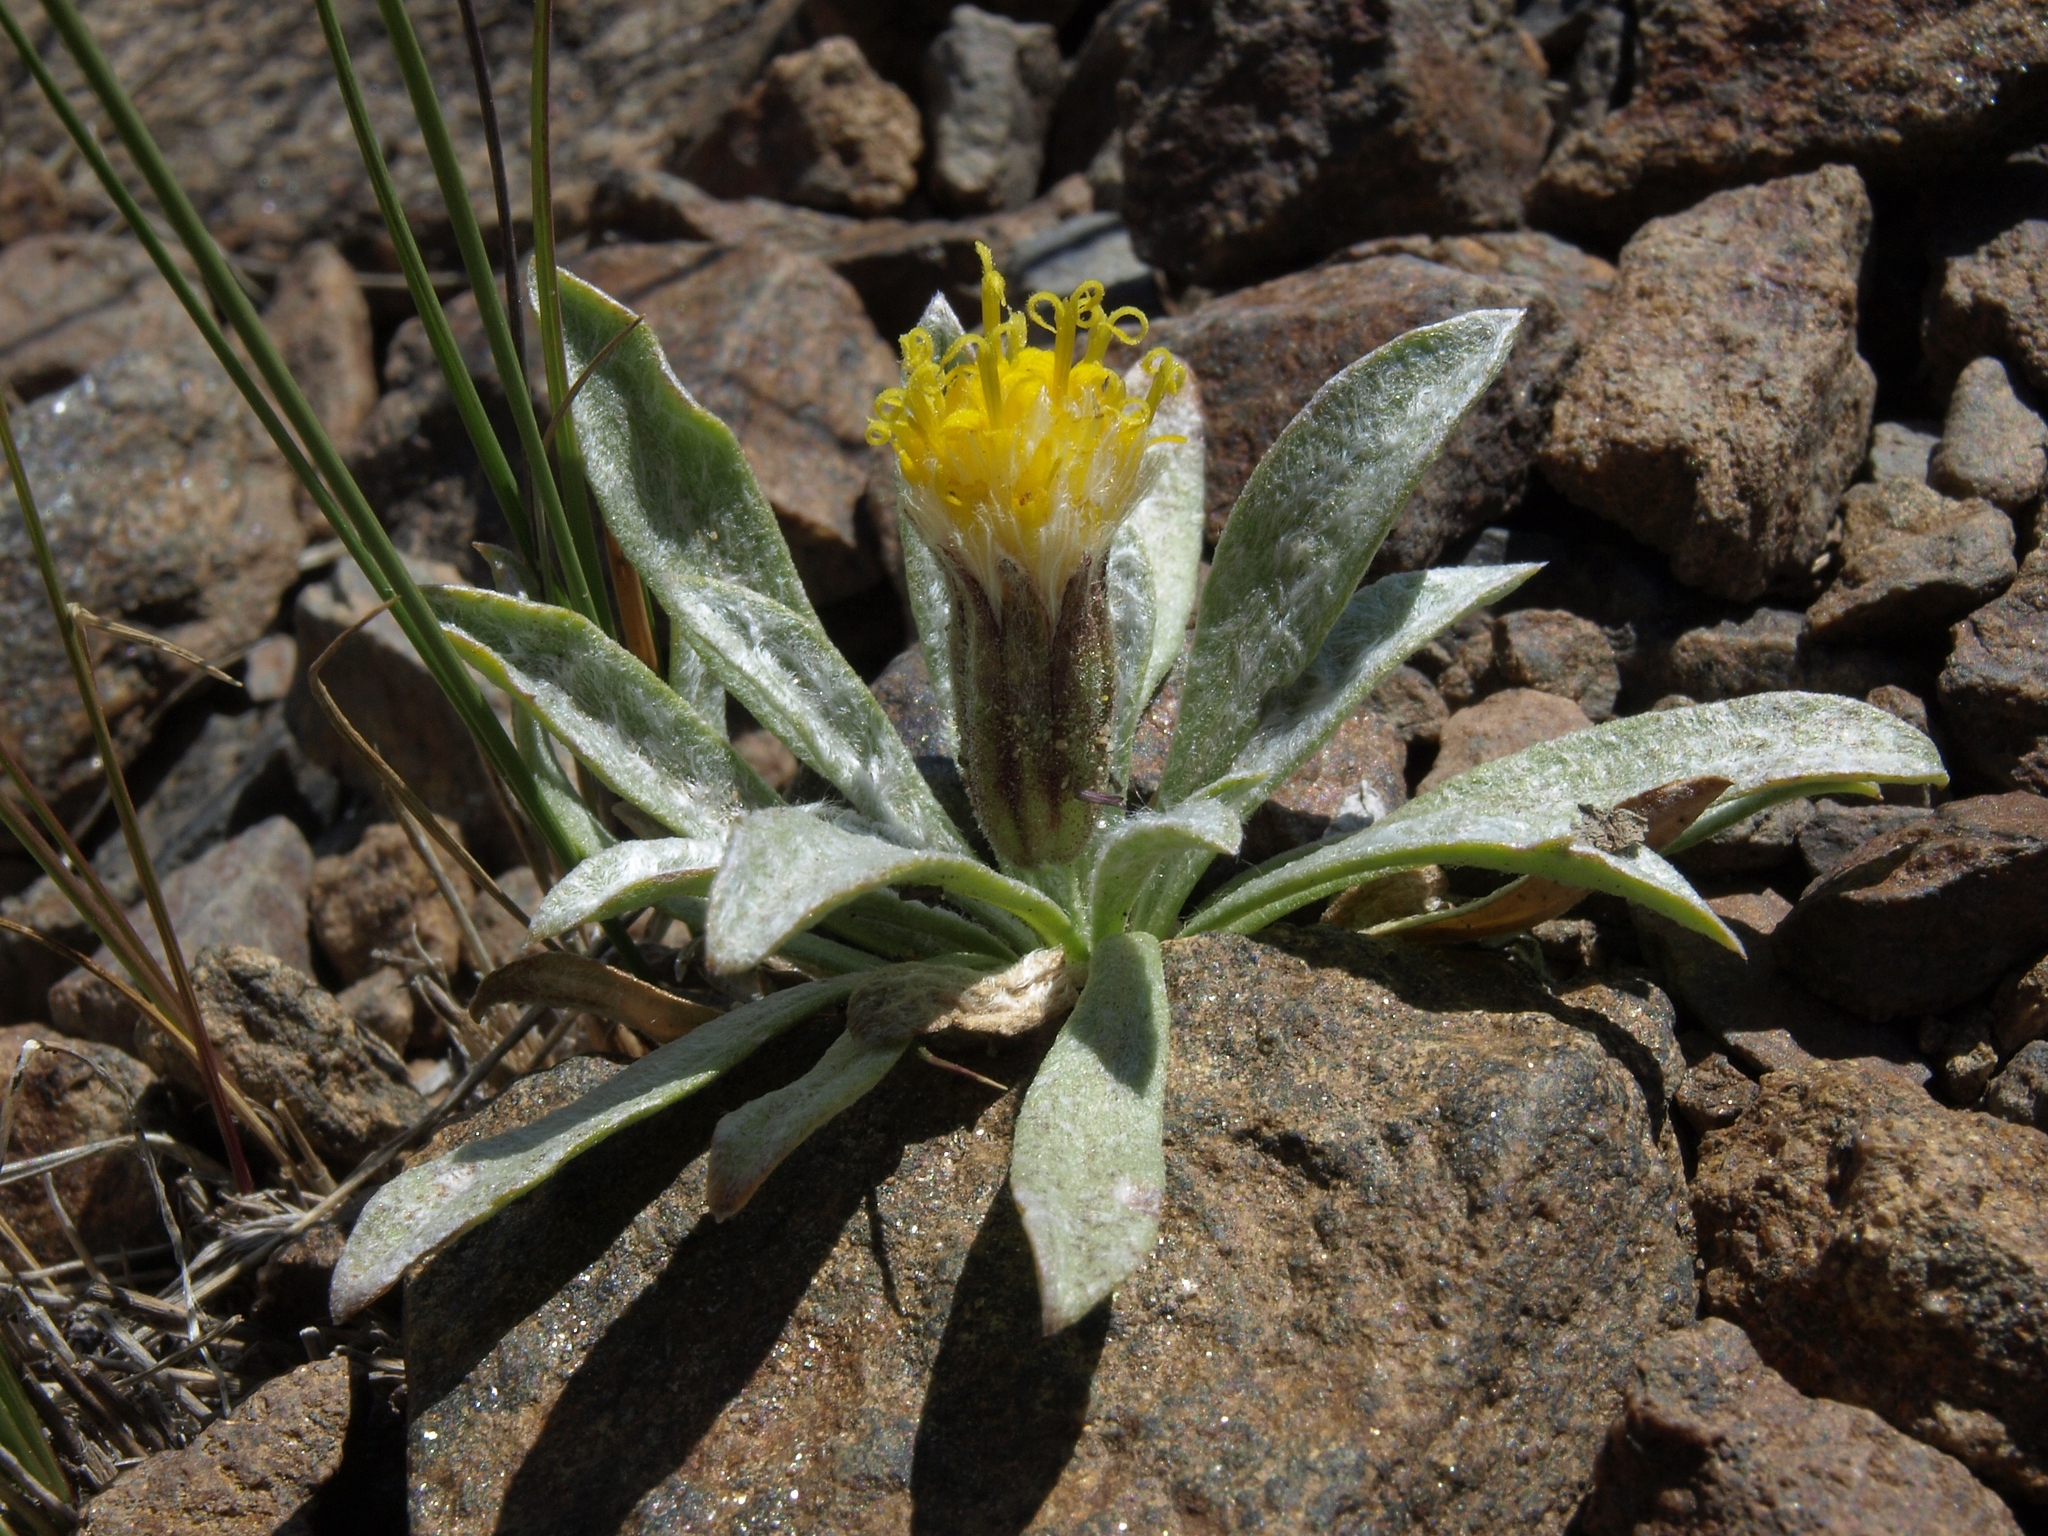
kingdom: Plantae
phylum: Tracheophyta
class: Magnoliopsida
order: Asterales
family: Asteraceae
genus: Raillardella
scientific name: Raillardella argentea
